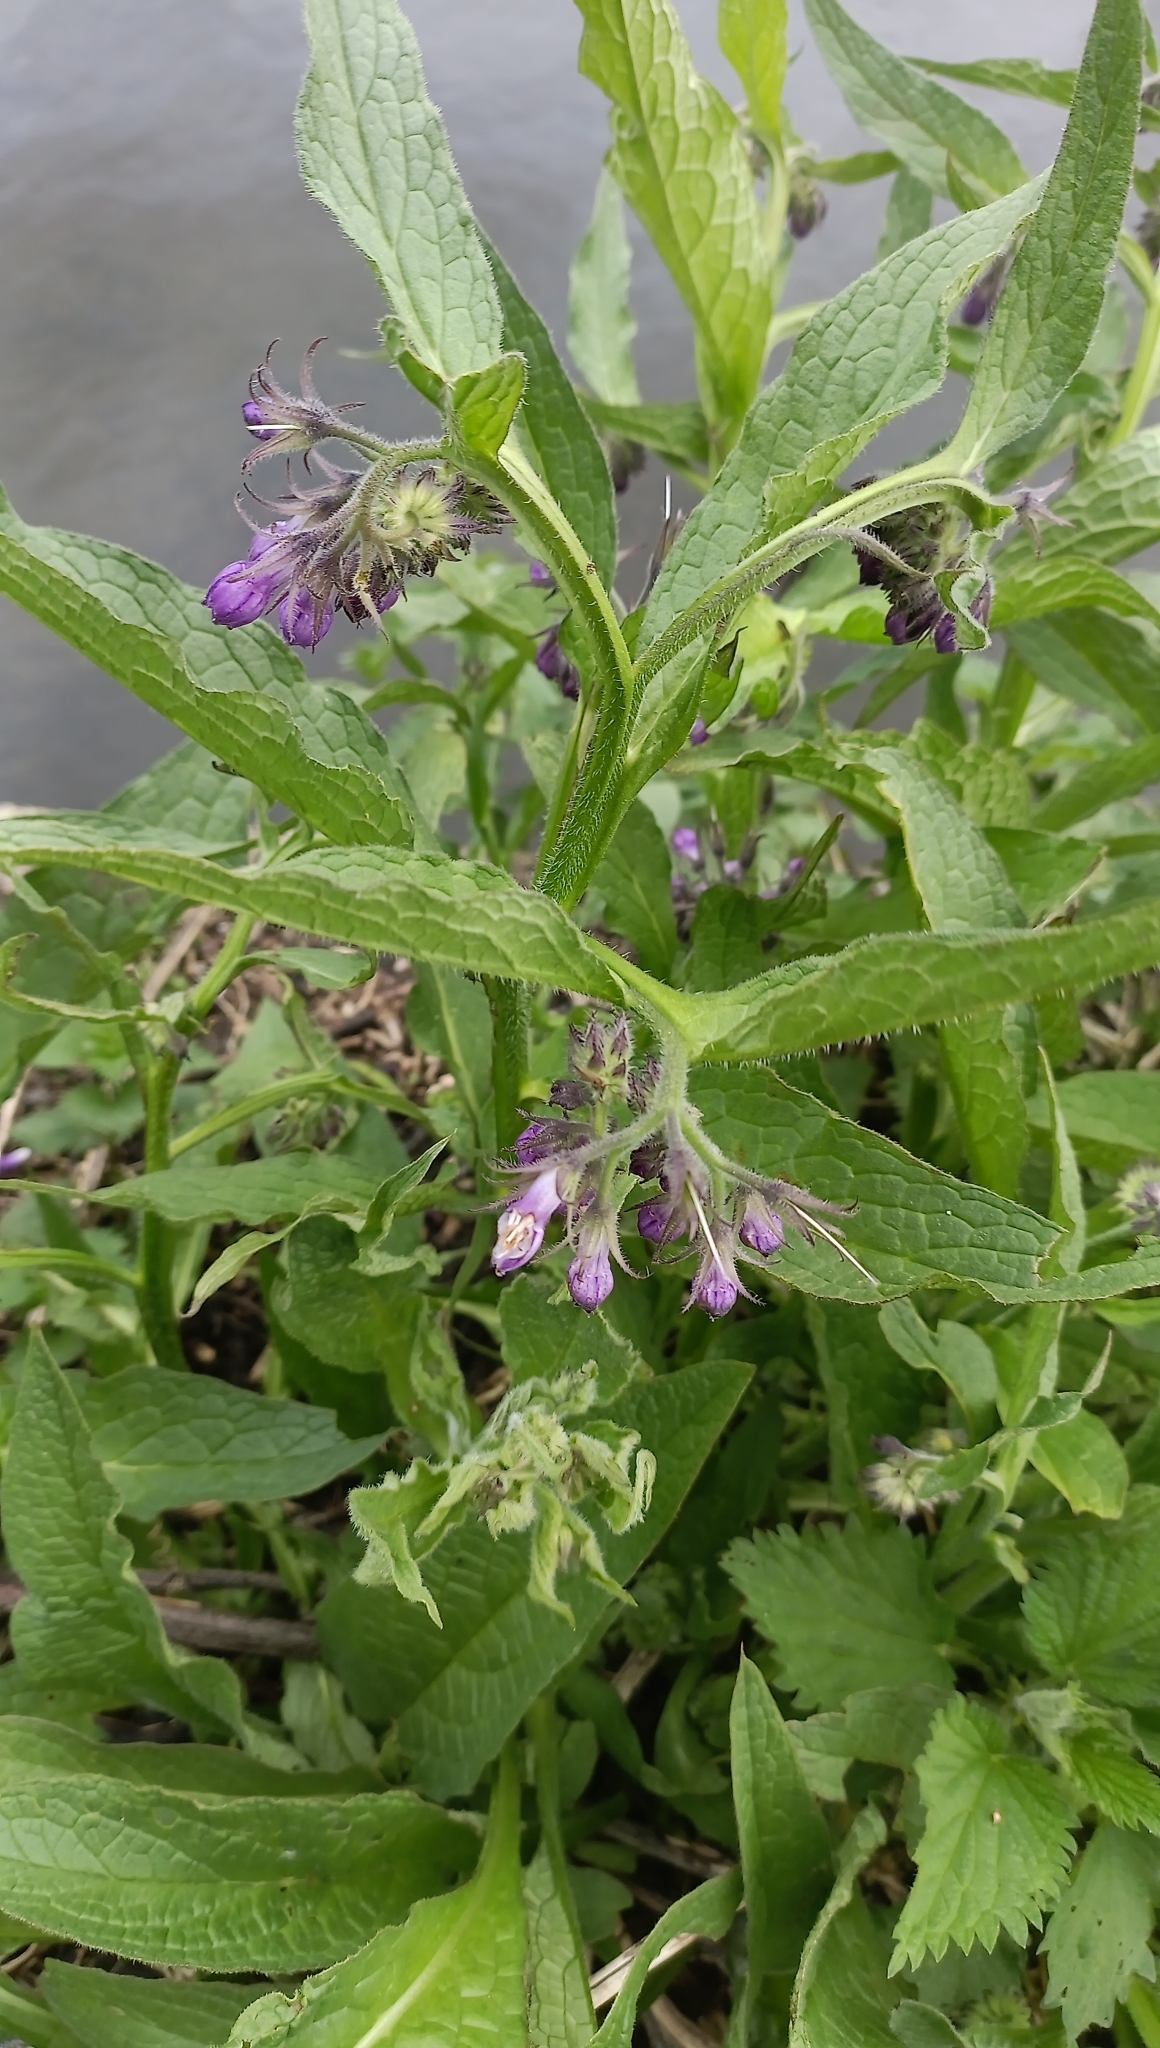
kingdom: Plantae
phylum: Tracheophyta
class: Magnoliopsida
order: Boraginales
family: Boraginaceae
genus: Symphytum
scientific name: Symphytum officinale
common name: Common comfrey
